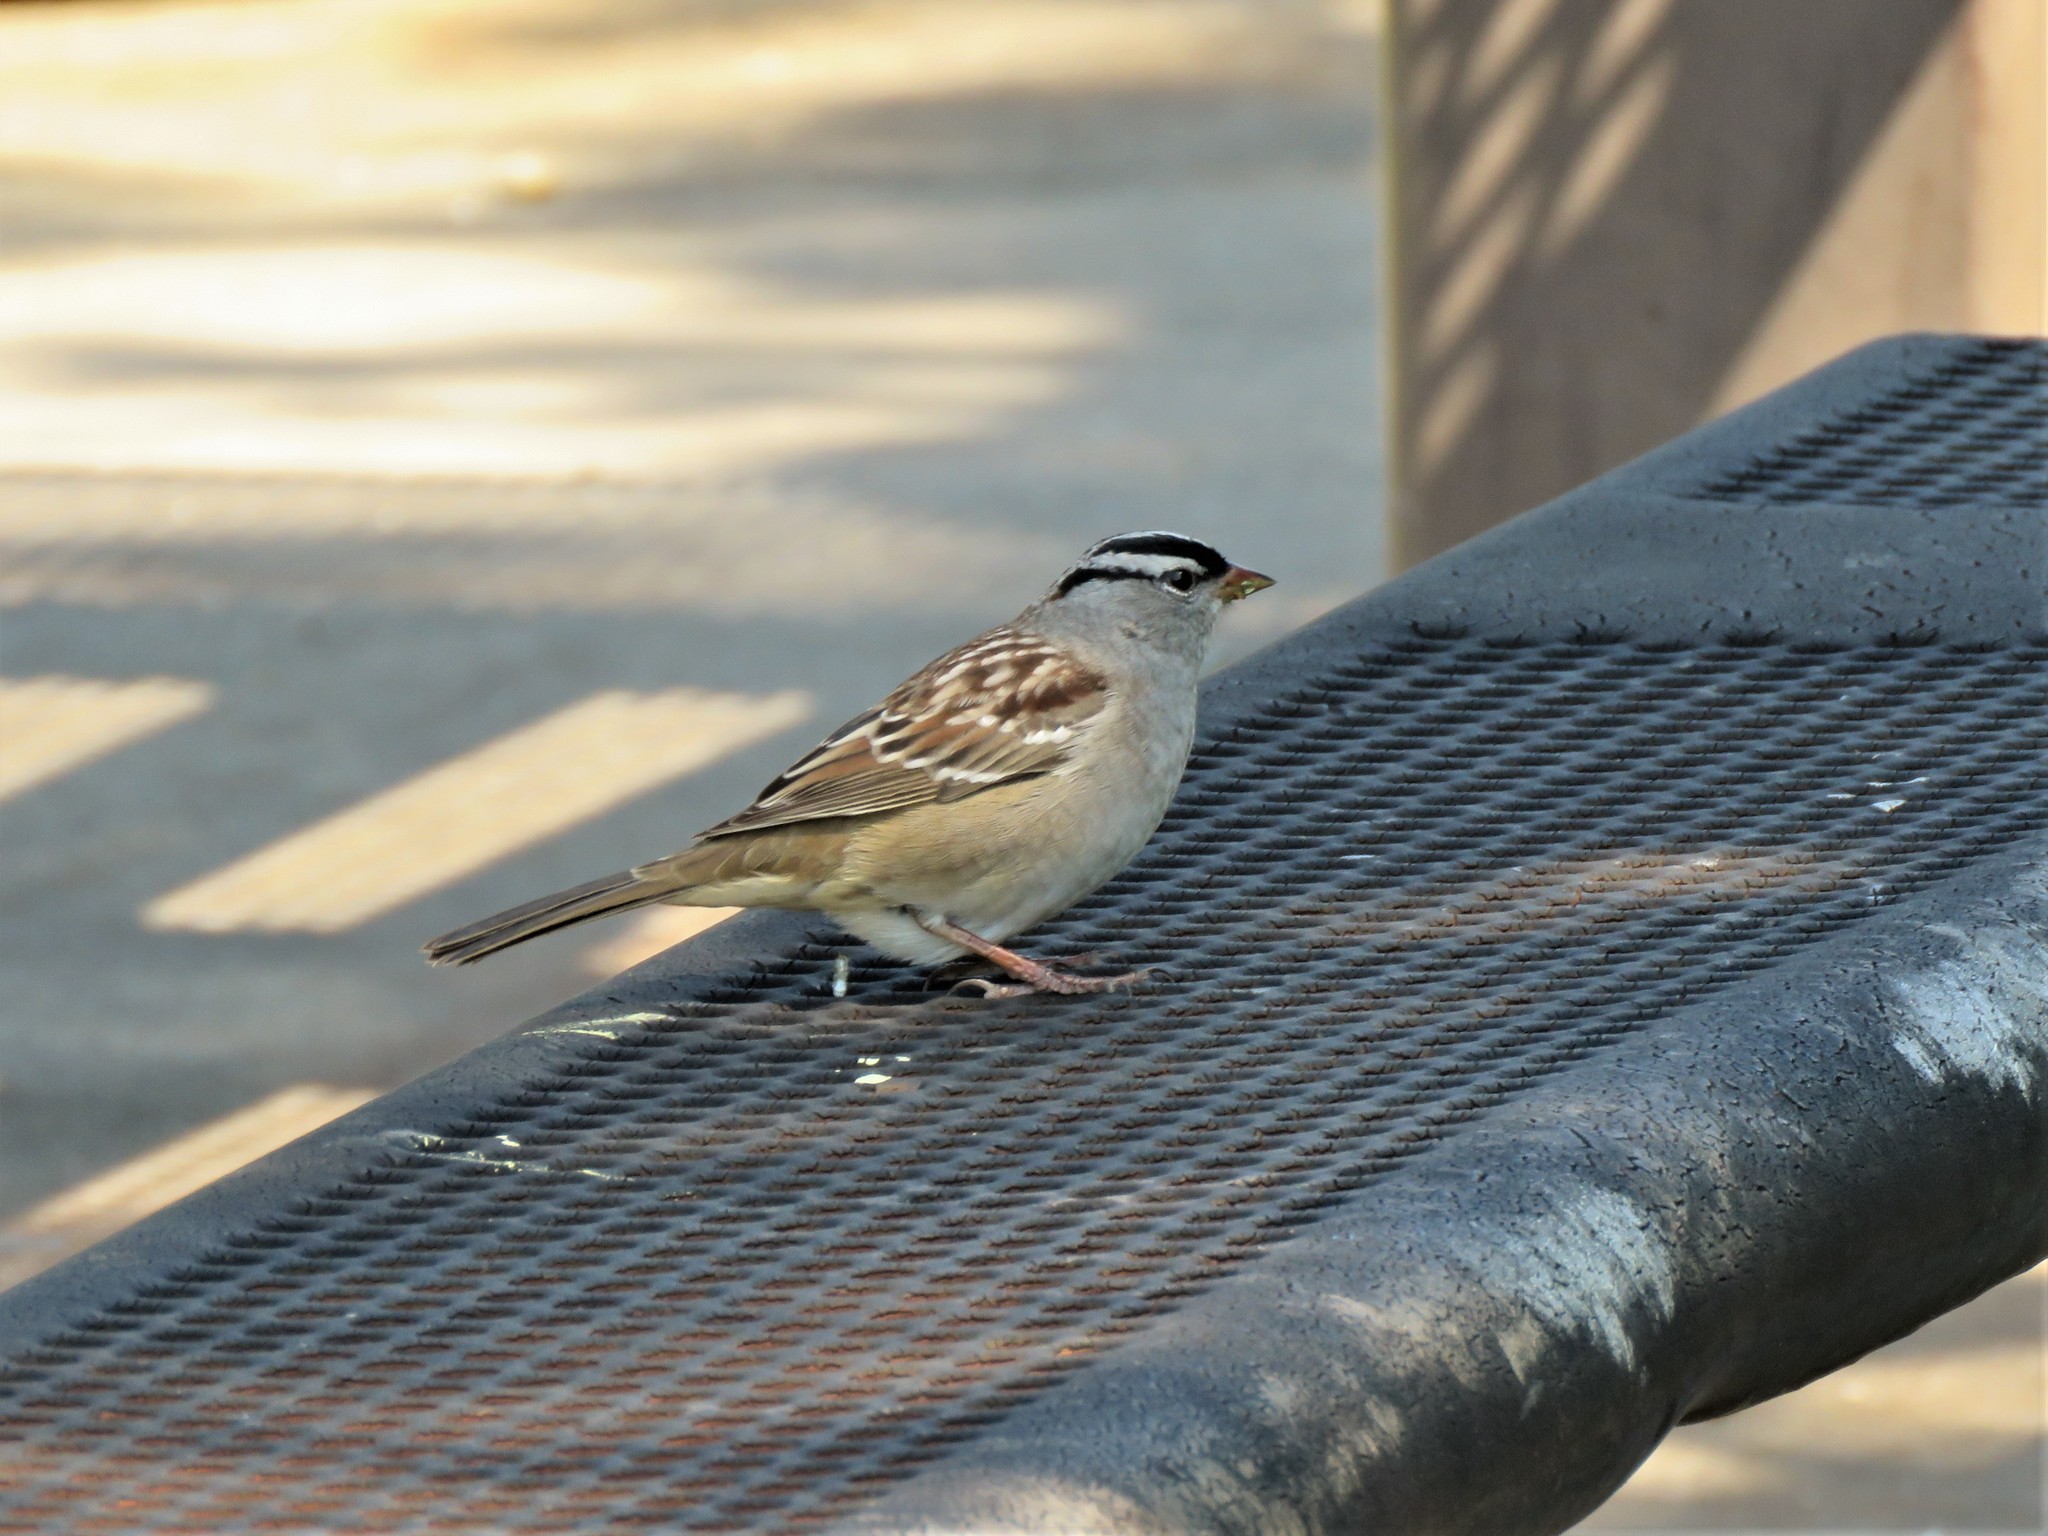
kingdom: Animalia
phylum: Chordata
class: Aves
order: Passeriformes
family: Passerellidae
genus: Zonotrichia
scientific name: Zonotrichia leucophrys
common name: White-crowned sparrow
